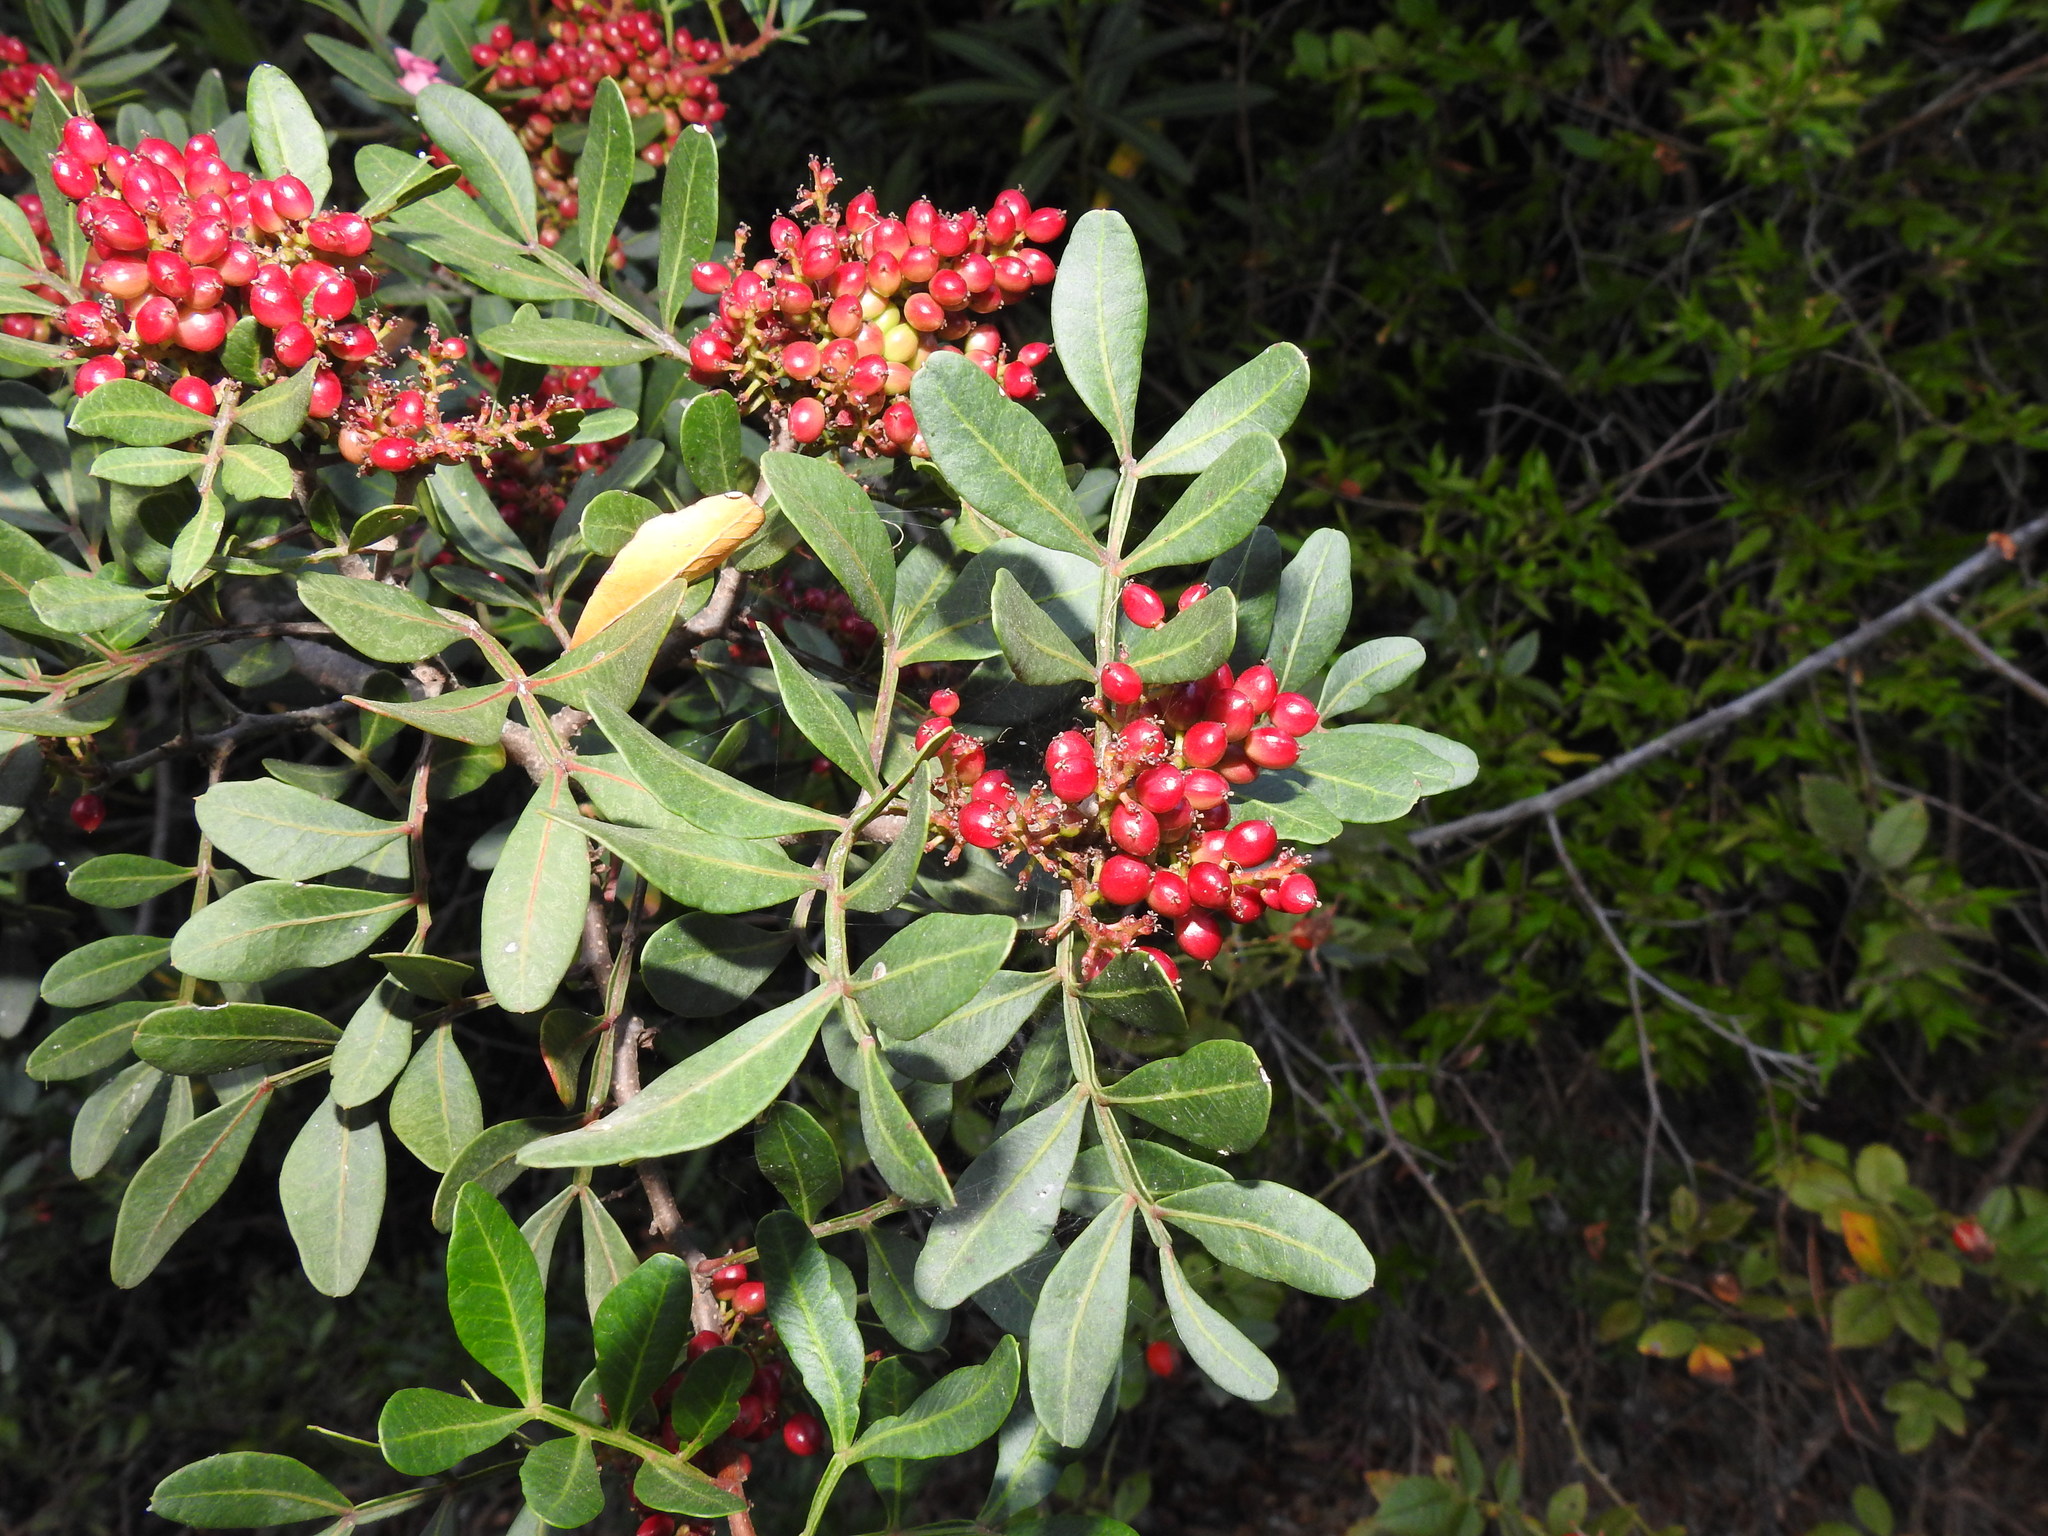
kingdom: Plantae
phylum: Tracheophyta
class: Magnoliopsida
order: Sapindales
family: Anacardiaceae
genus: Pistacia
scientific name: Pistacia lentiscus
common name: Lentisk
